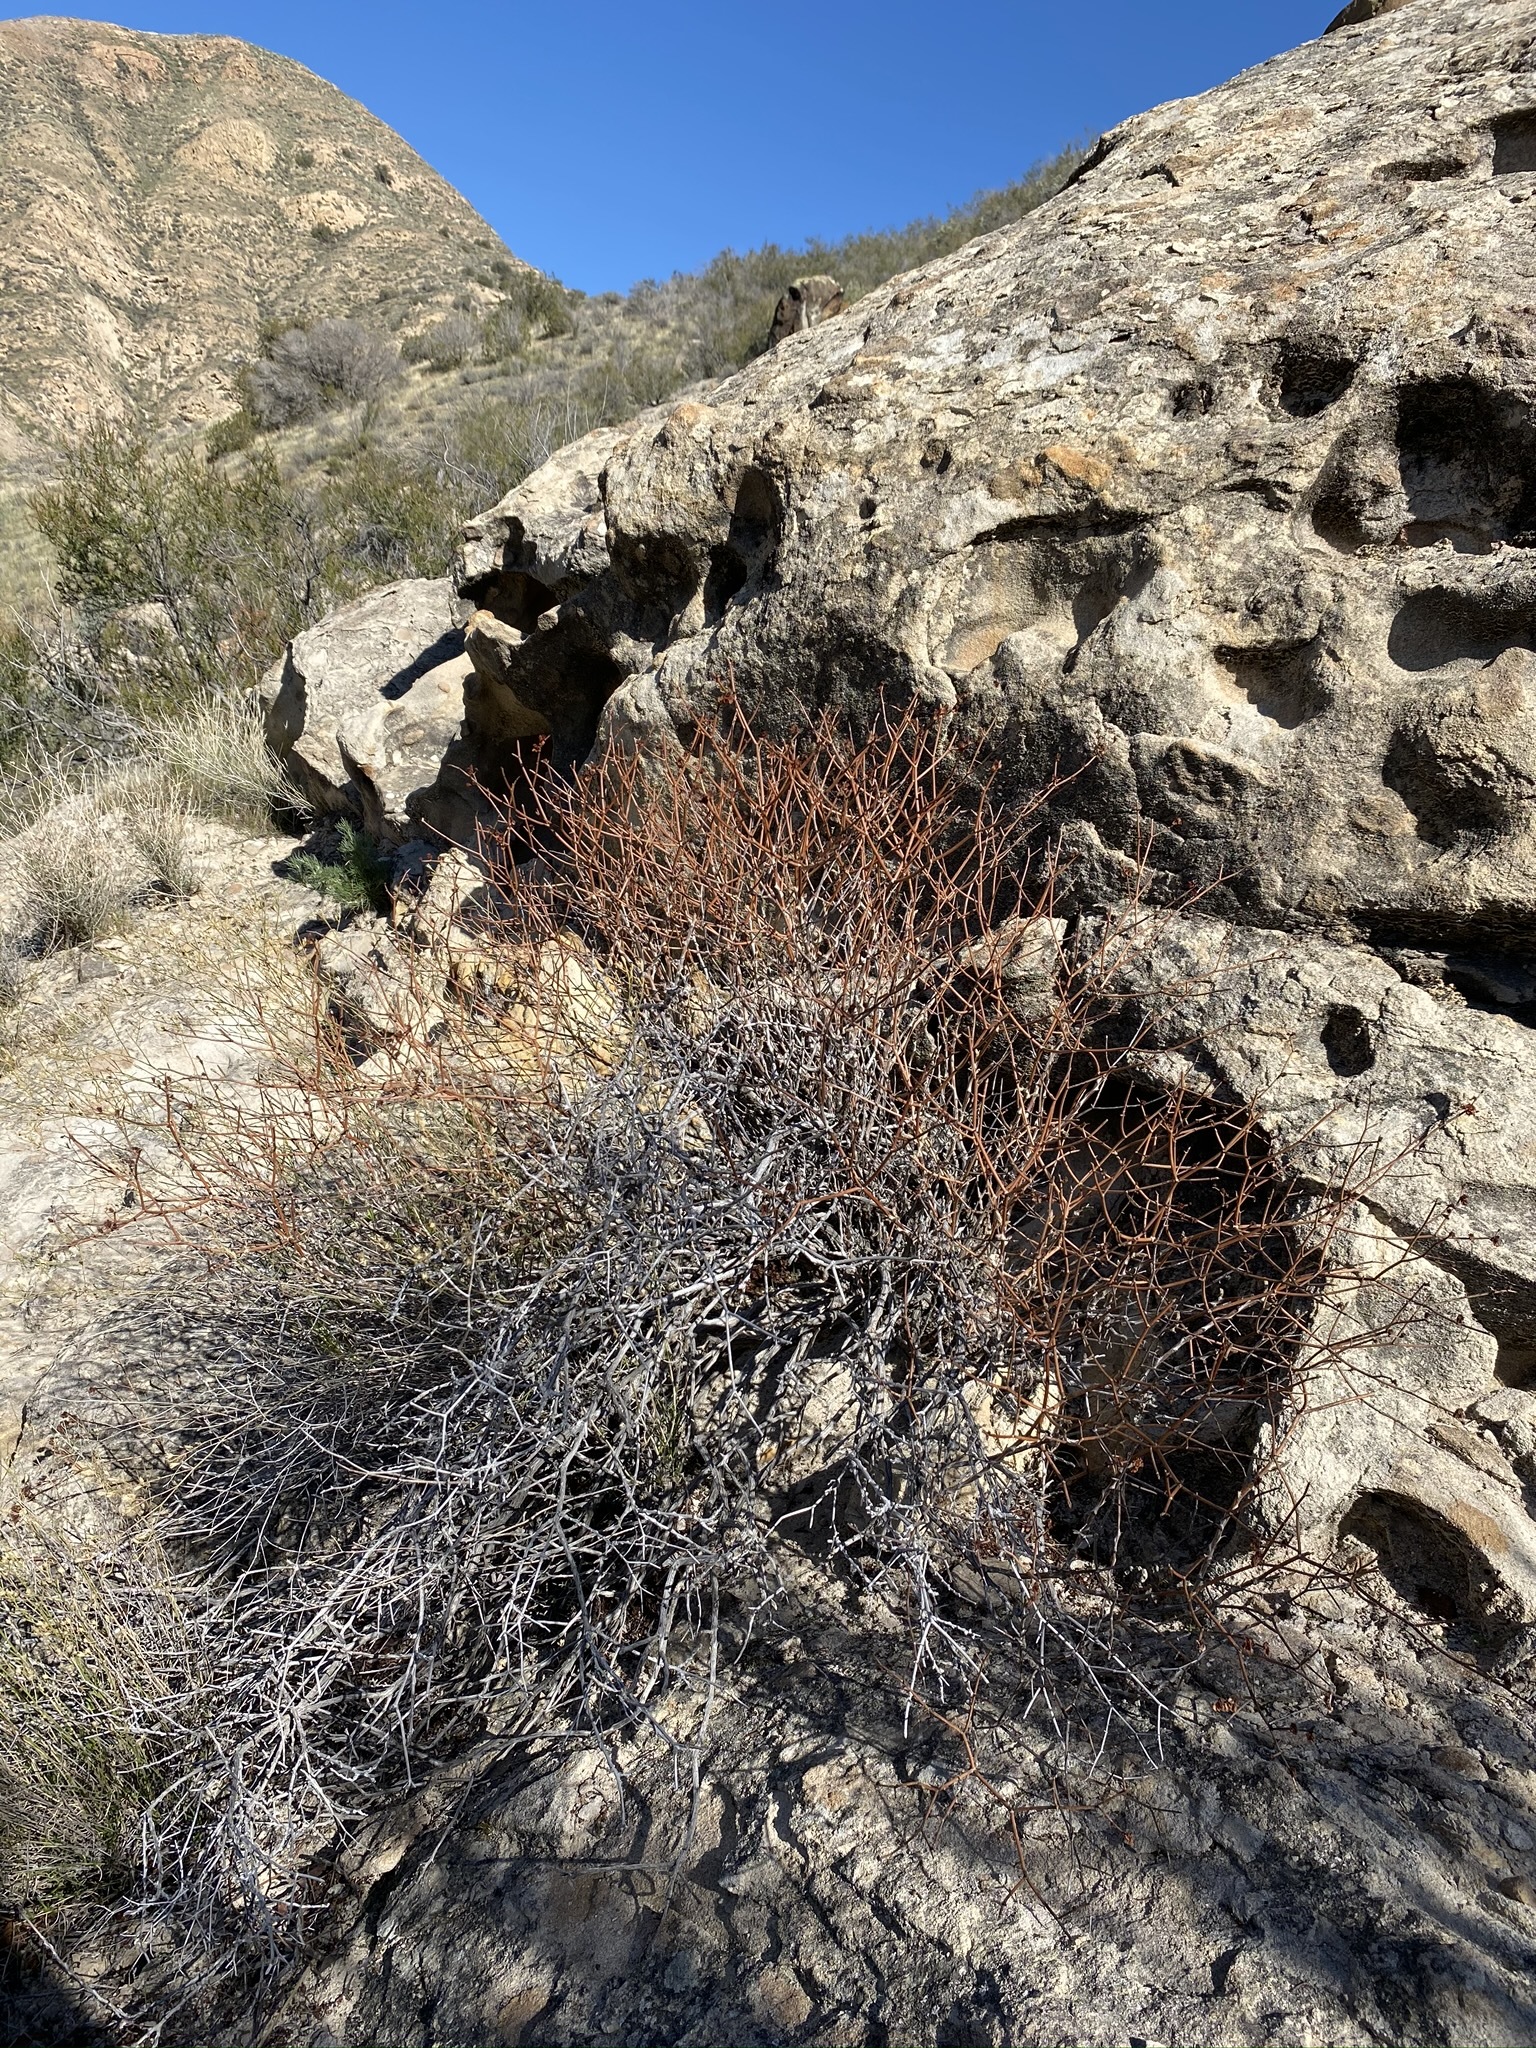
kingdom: Plantae
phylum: Tracheophyta
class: Magnoliopsida
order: Caryophyllales
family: Polygonaceae
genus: Eriogonum
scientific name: Eriogonum heermannii
